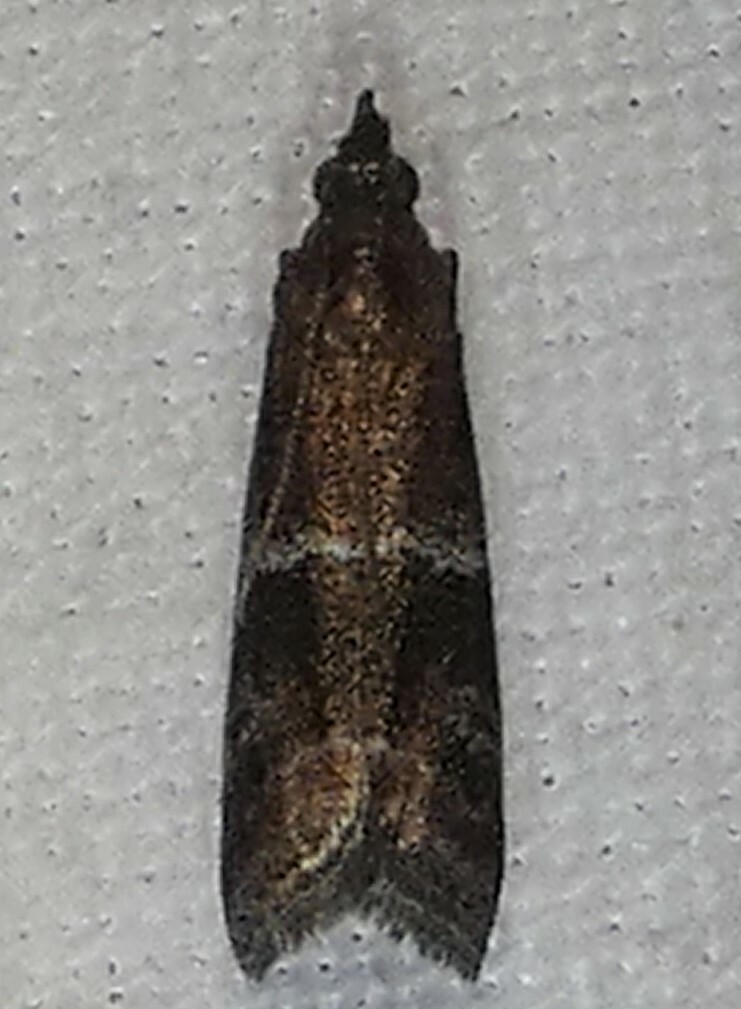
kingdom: Animalia
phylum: Arthropoda
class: Insecta
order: Lepidoptera
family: Pyralidae
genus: Moodna
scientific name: Moodna ostrinella
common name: Darker moodna moth
